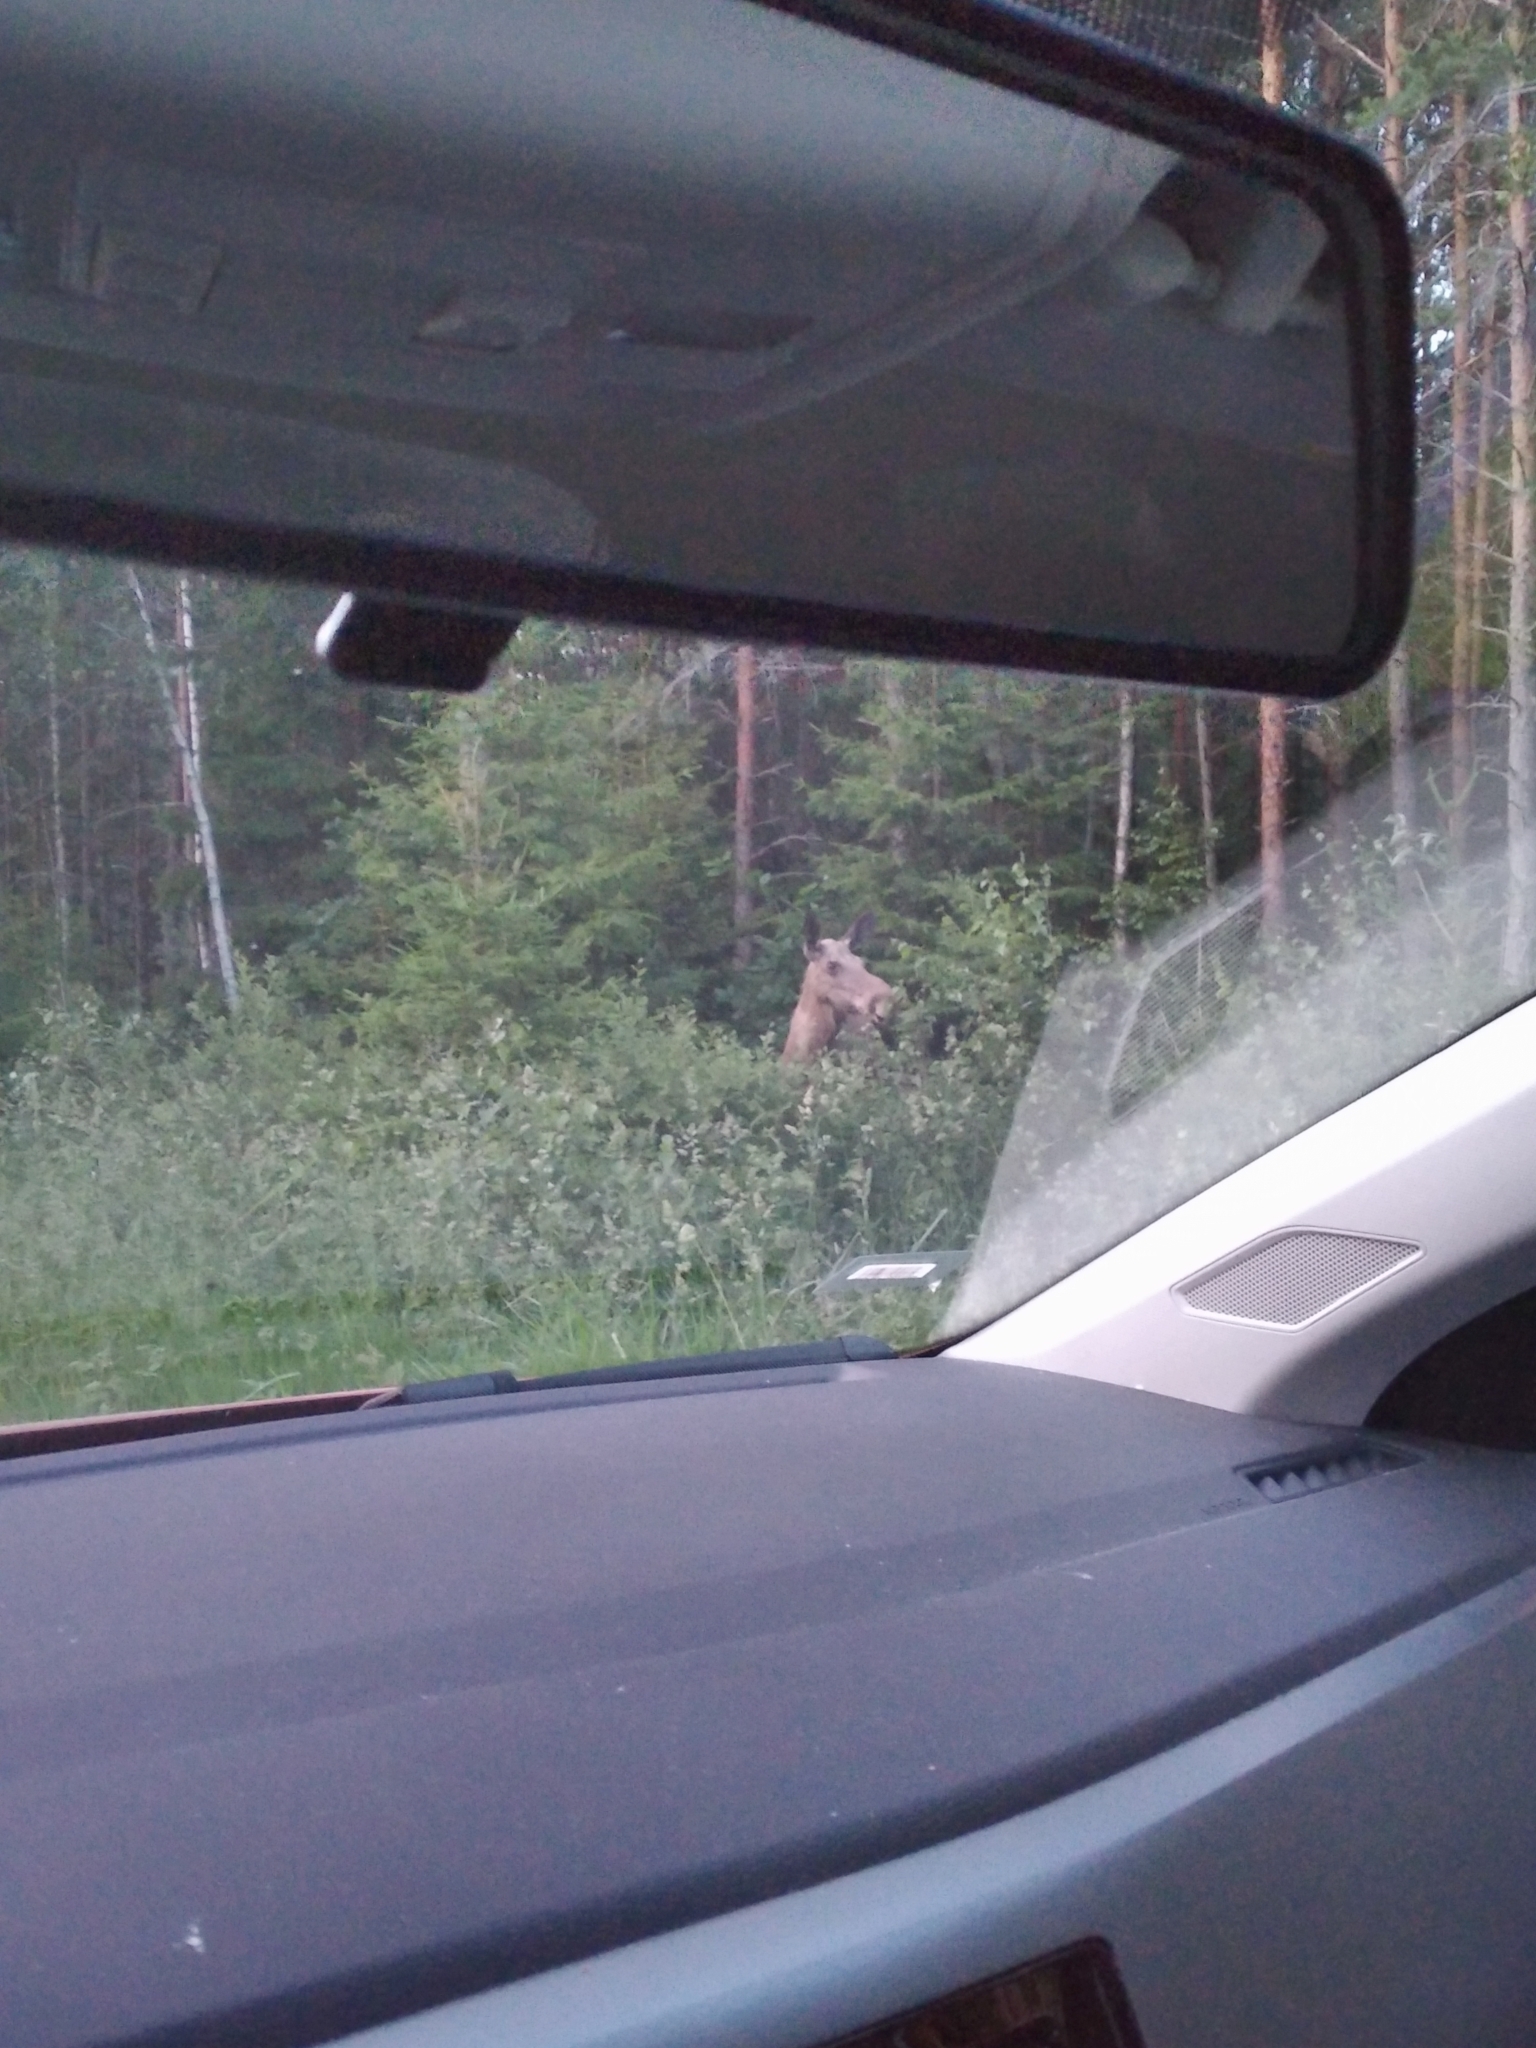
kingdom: Animalia
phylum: Chordata
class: Mammalia
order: Artiodactyla
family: Cervidae
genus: Alces
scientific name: Alces alces
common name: Moose
